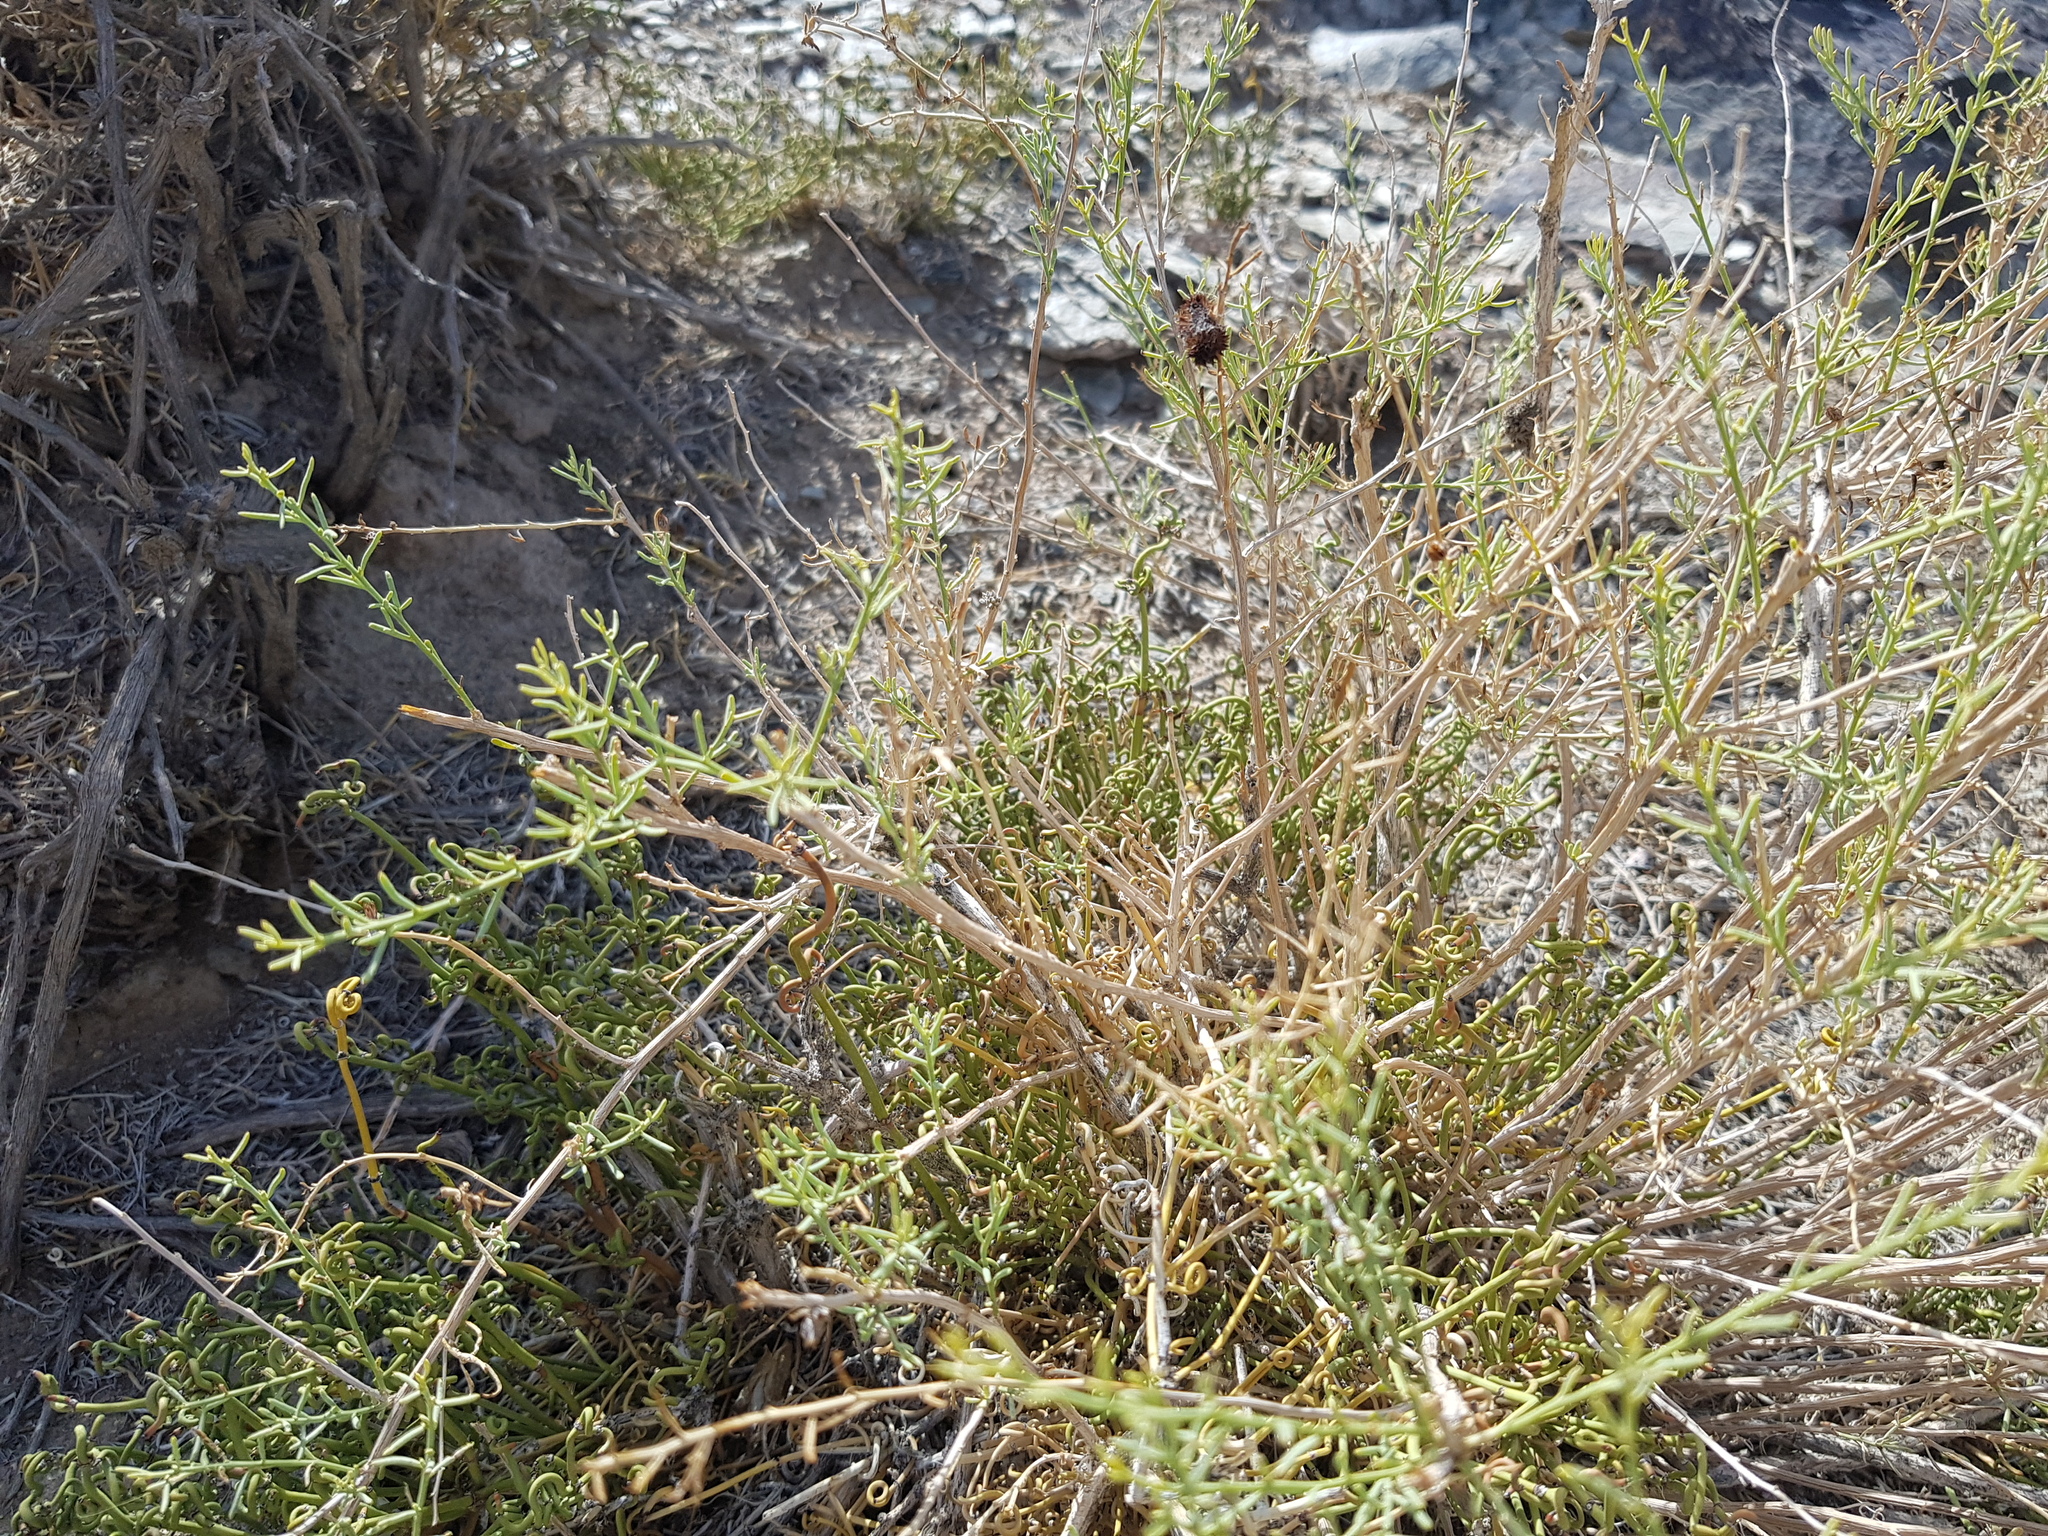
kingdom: Plantae
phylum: Tracheophyta
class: Magnoliopsida
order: Caryophyllales
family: Amaranthaceae
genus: Sympegma
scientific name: Sympegma regelii
